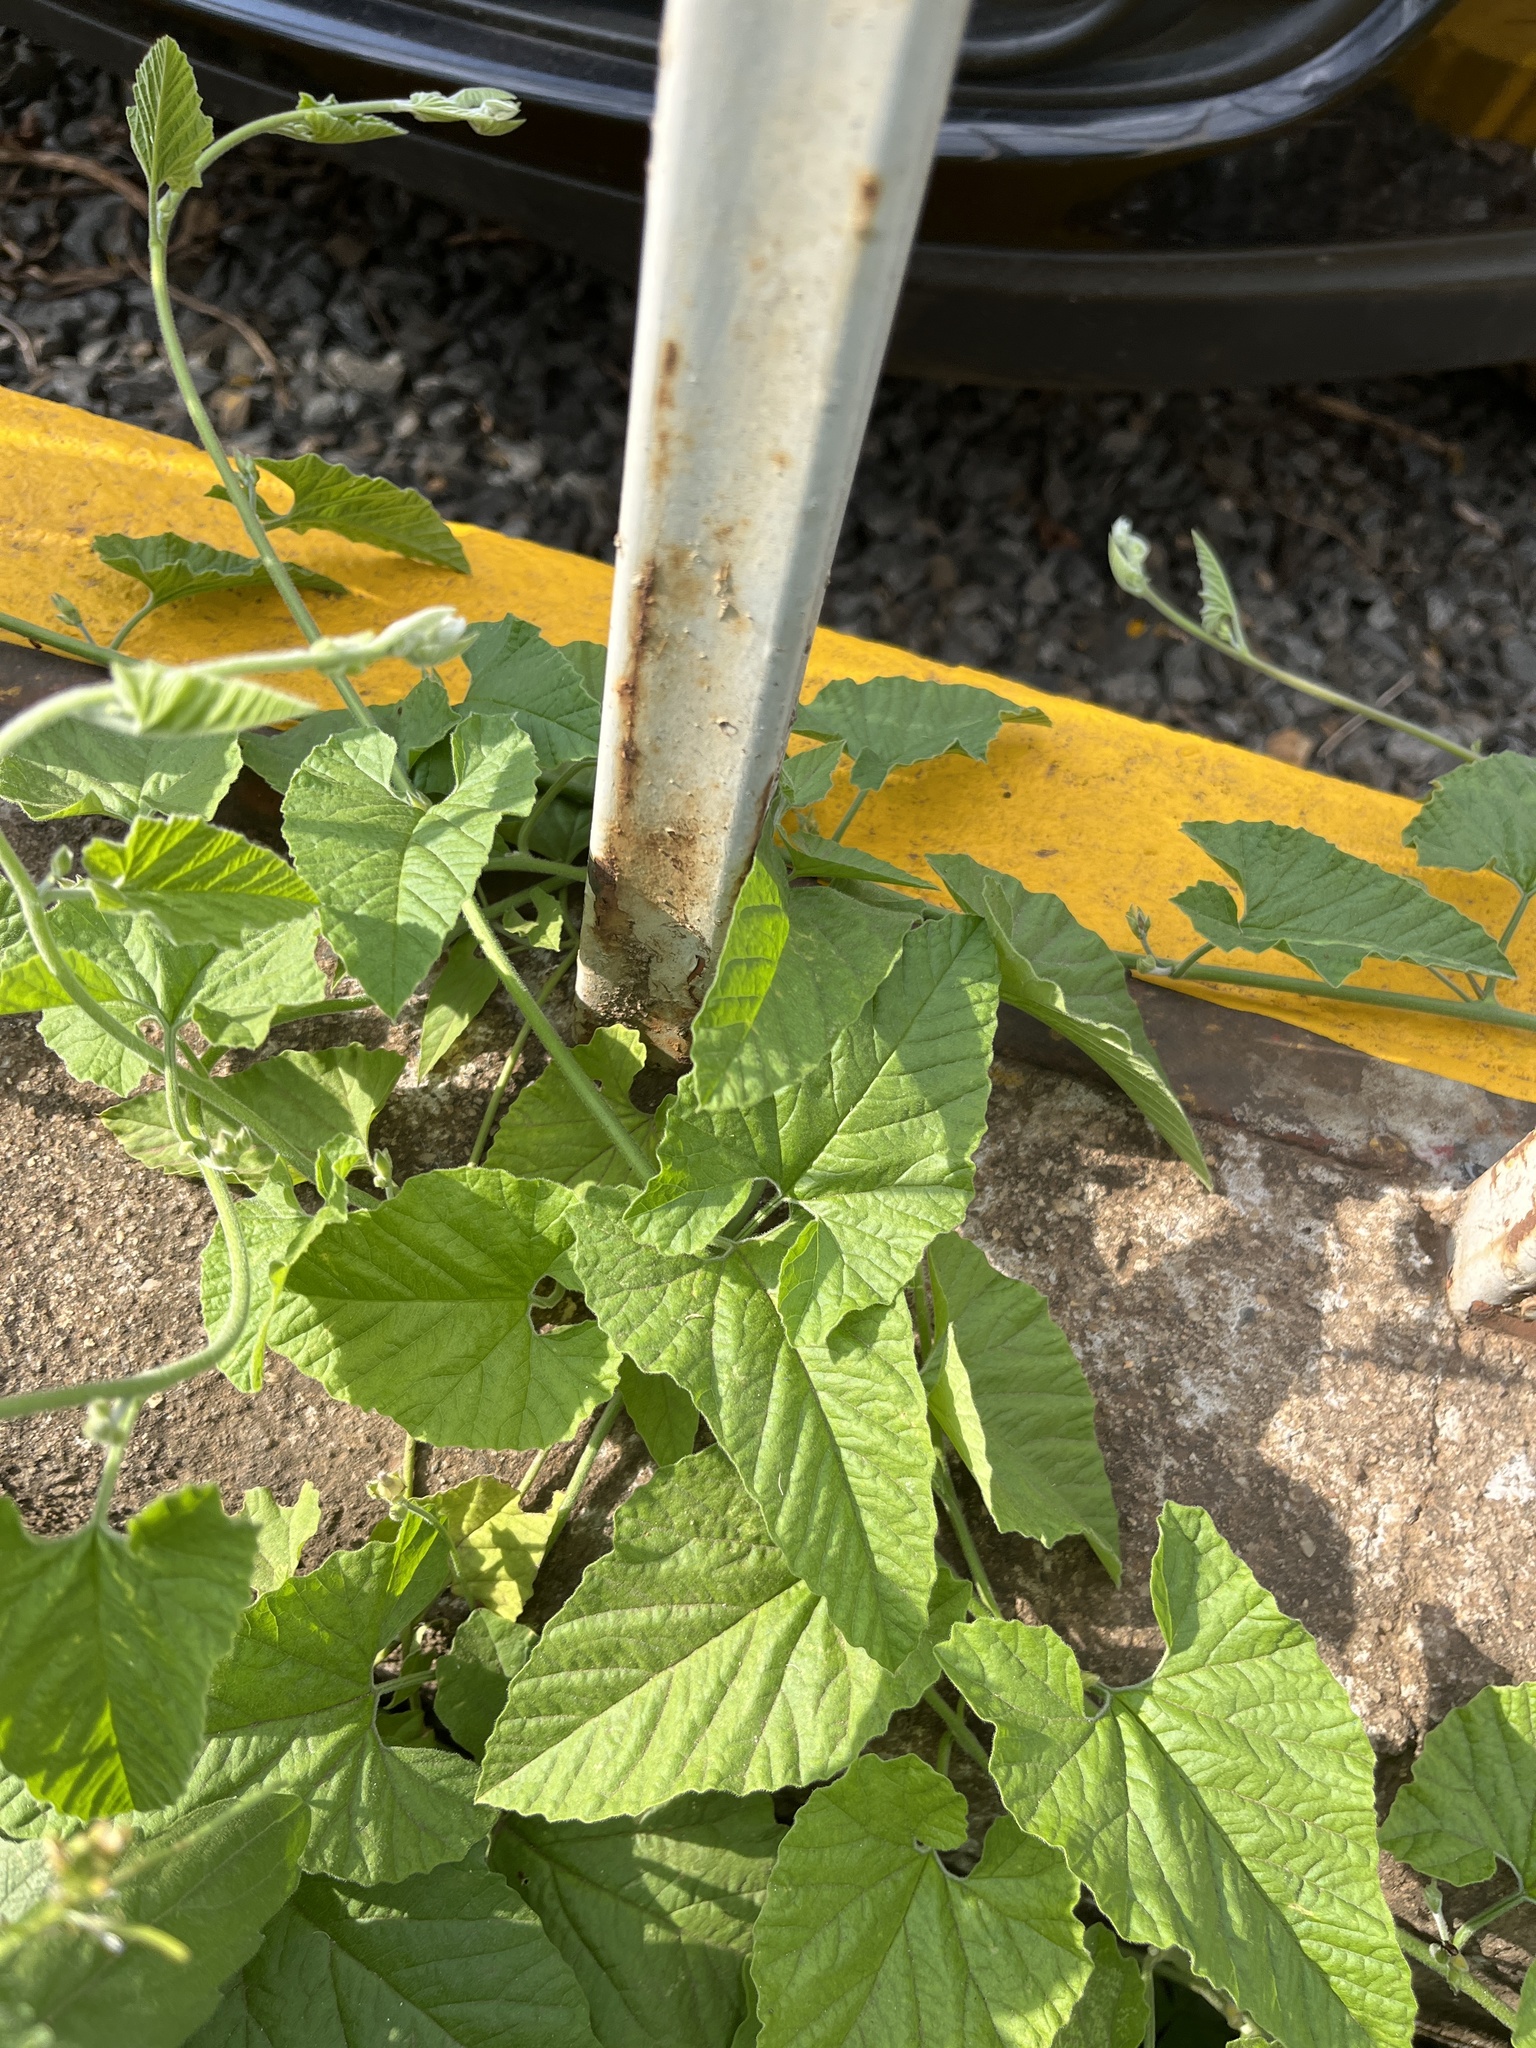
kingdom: Plantae
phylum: Tracheophyta
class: Magnoliopsida
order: Solanales
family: Convolvulaceae
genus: Convolvulus
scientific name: Convolvulus farinosus
